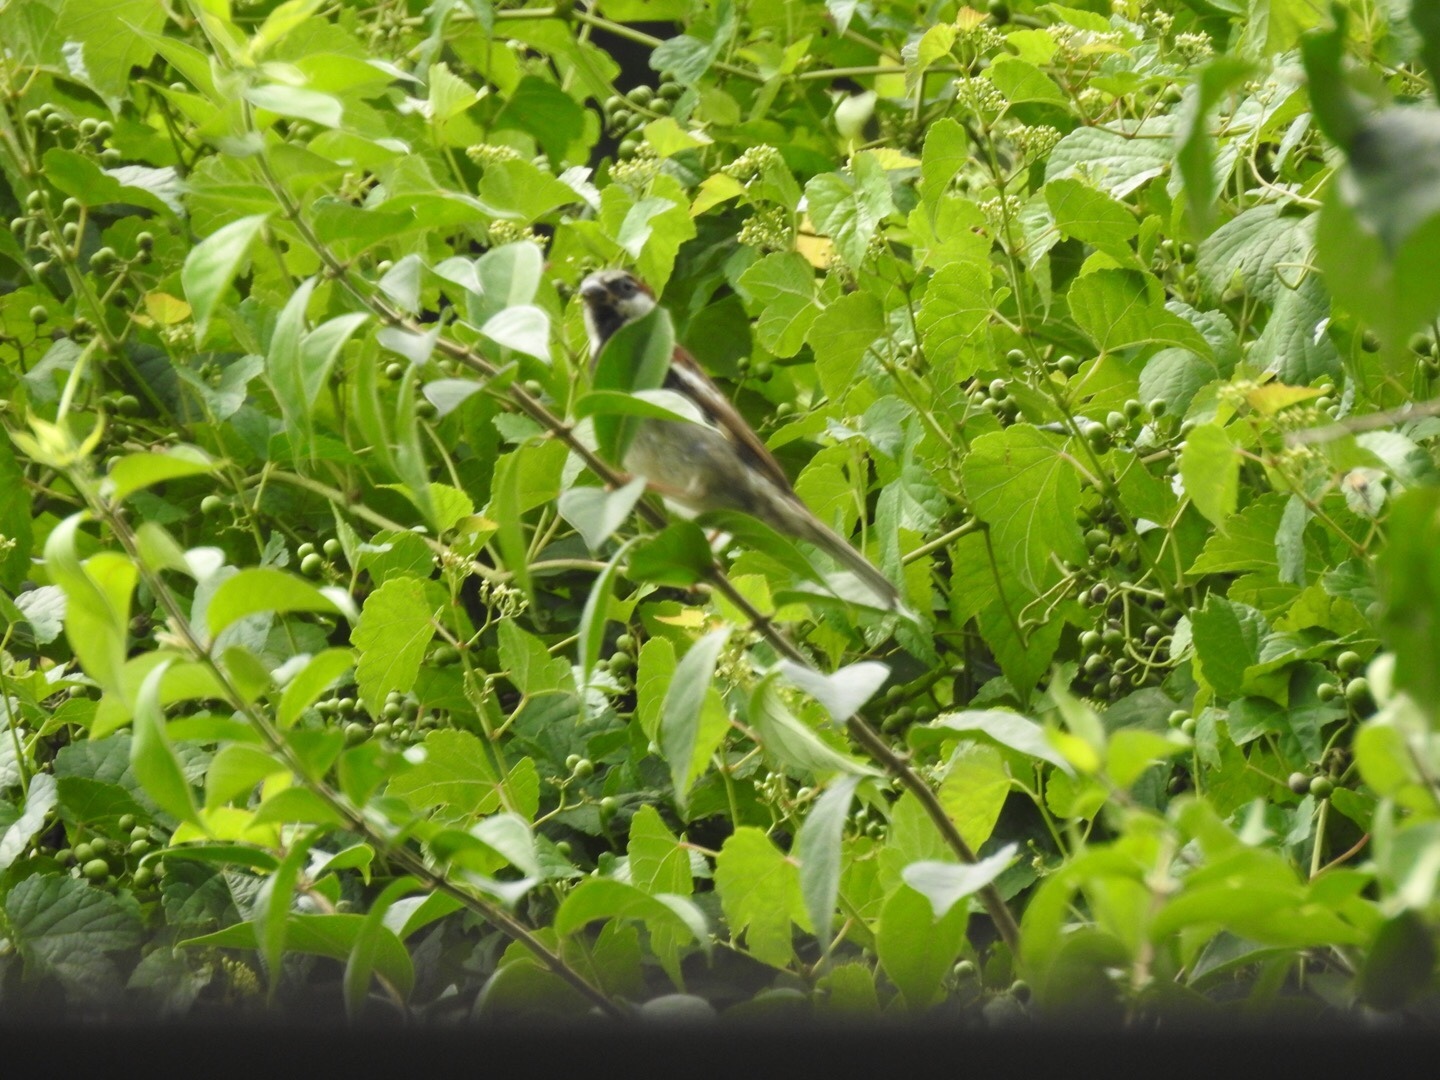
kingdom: Animalia
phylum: Chordata
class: Aves
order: Passeriformes
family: Passeridae
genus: Passer
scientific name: Passer domesticus
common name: House sparrow
